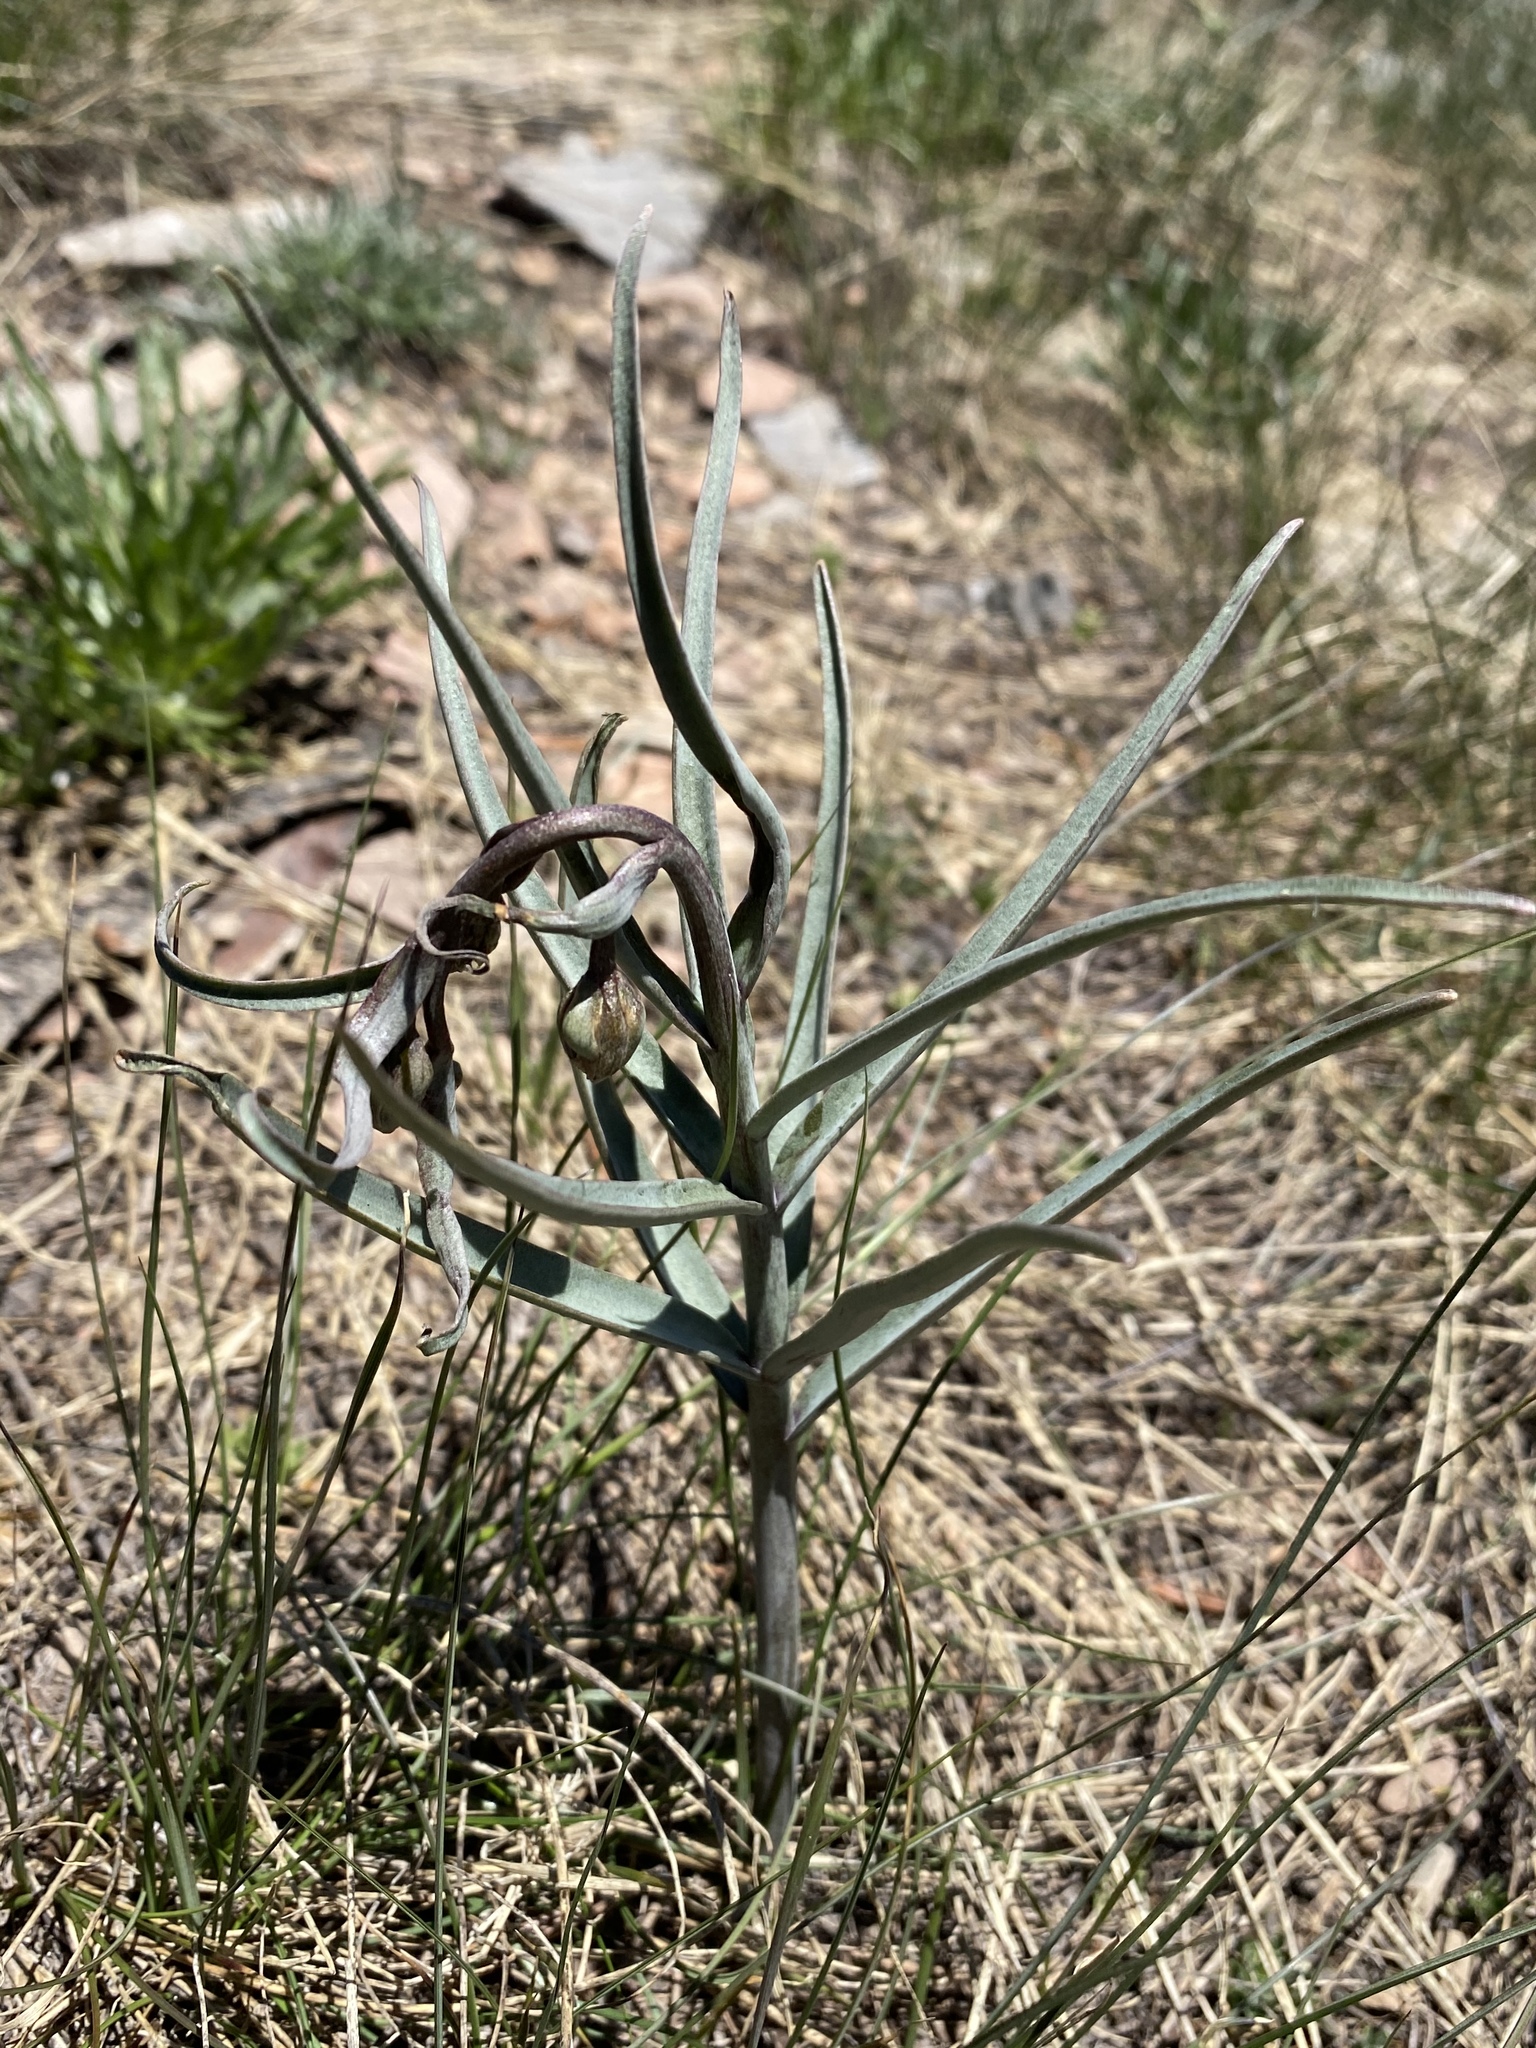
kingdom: Plantae
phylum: Tracheophyta
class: Liliopsida
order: Liliales
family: Liliaceae
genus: Fritillaria
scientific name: Fritillaria atropurpurea
